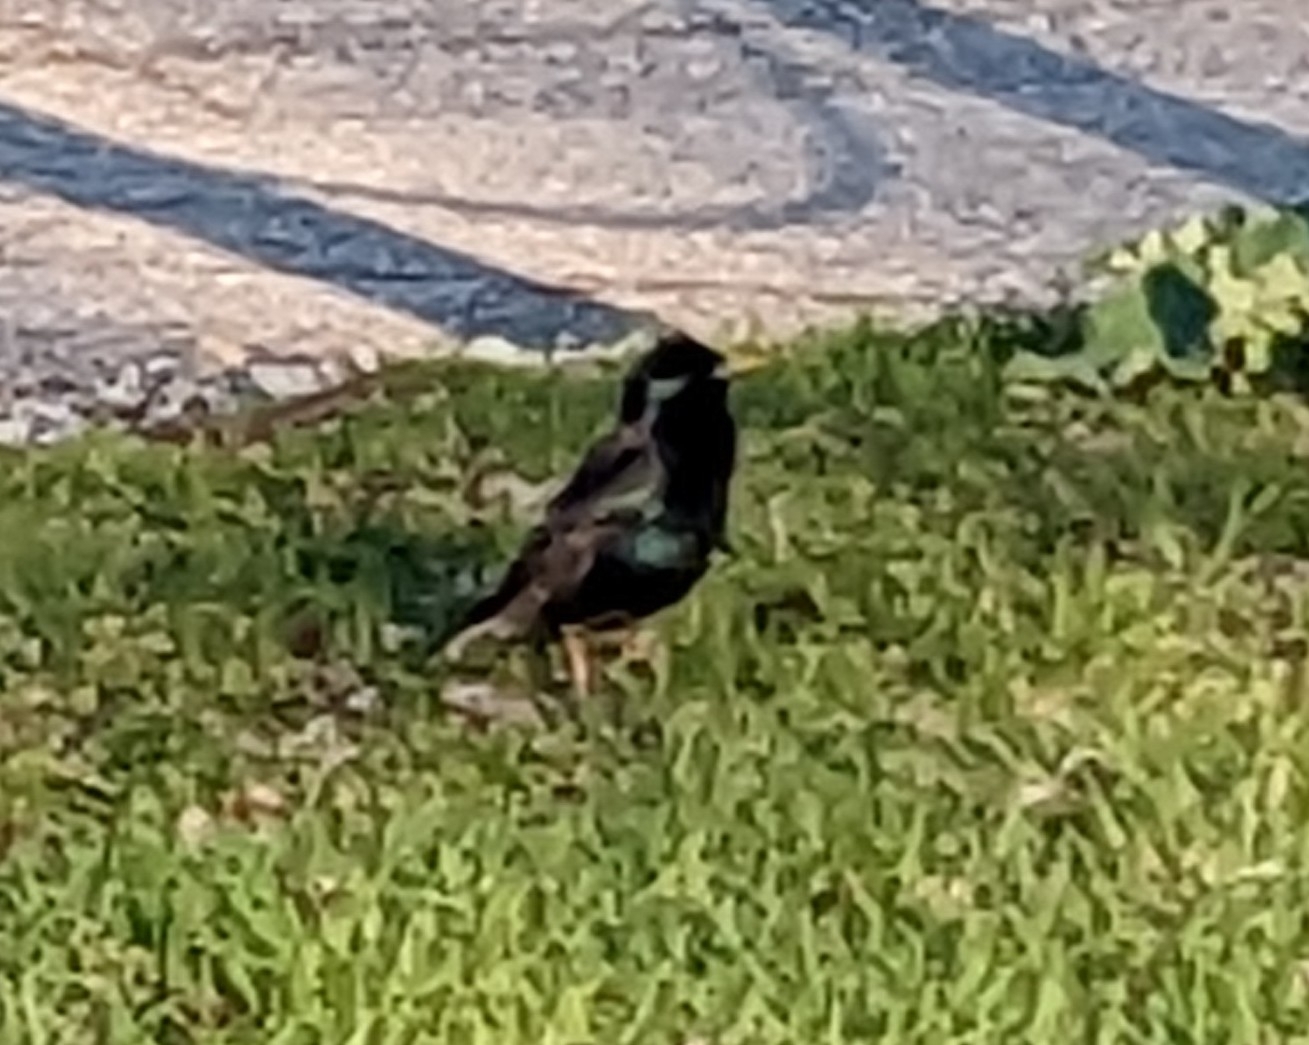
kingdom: Animalia
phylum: Chordata
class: Aves
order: Passeriformes
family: Sturnidae
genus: Sturnus
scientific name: Sturnus vulgaris
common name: Common starling
